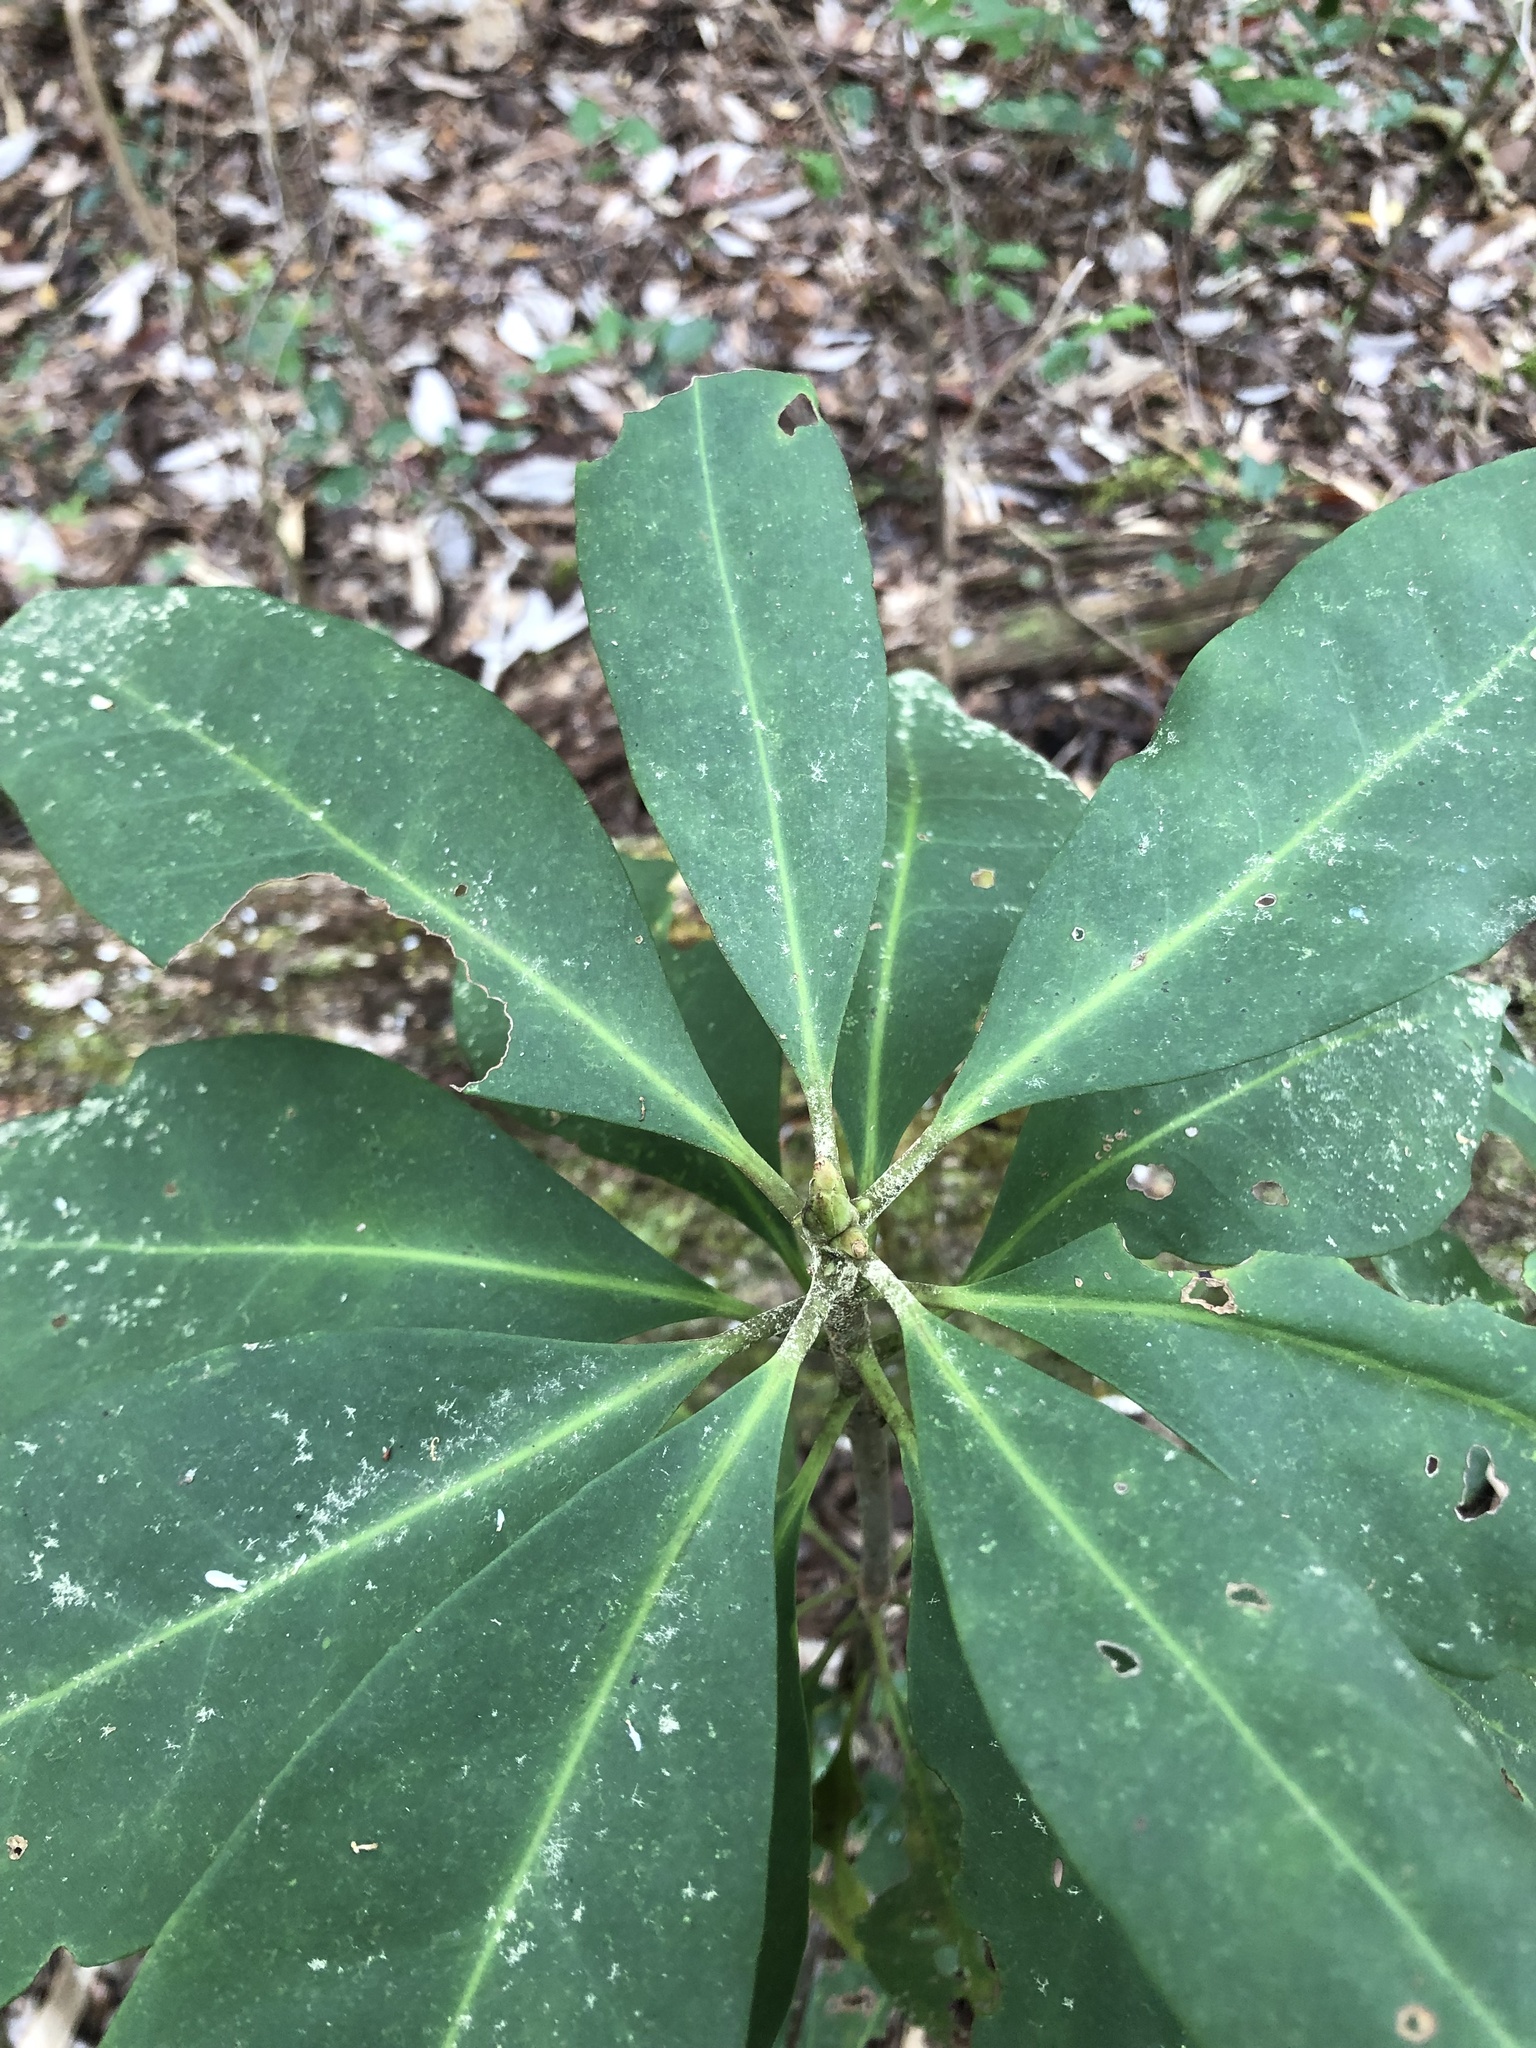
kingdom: Plantae
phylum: Tracheophyta
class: Magnoliopsida
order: Austrobaileyales
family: Schisandraceae
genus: Illicium
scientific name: Illicium floridanum
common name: Florida anisetree
